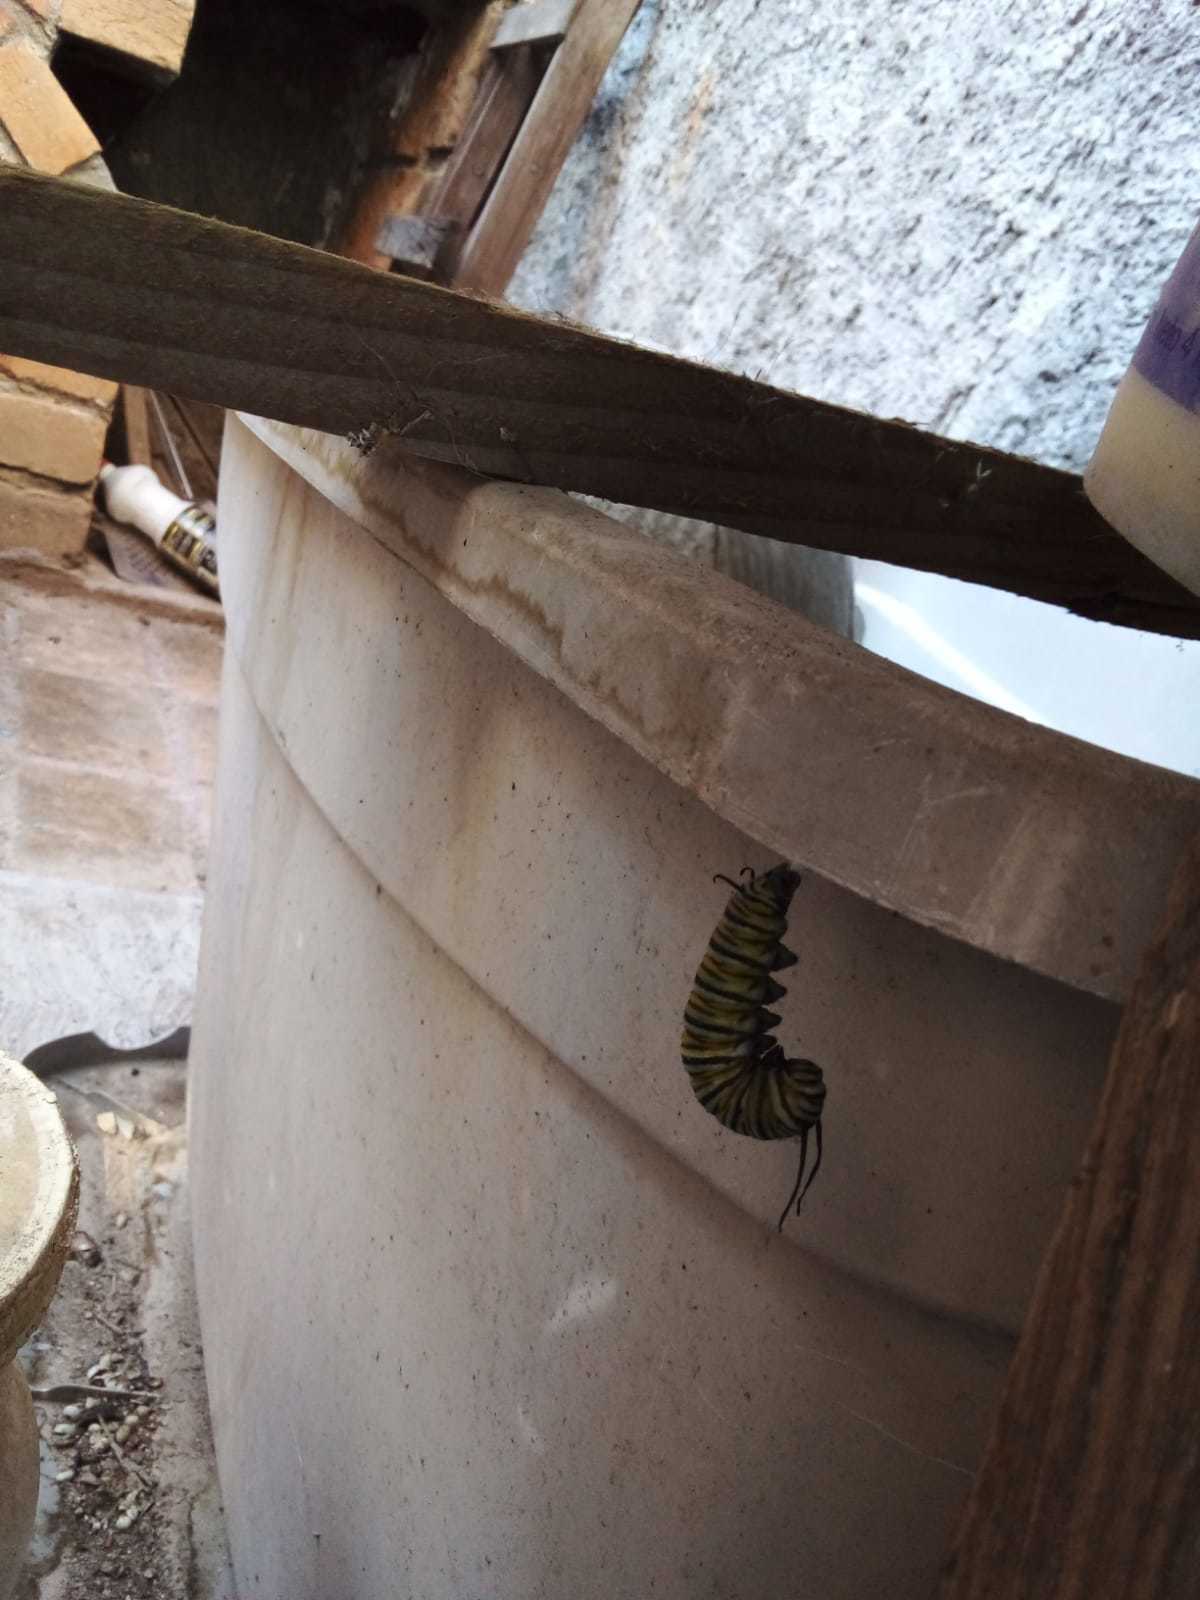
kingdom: Animalia
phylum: Arthropoda
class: Insecta
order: Lepidoptera
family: Nymphalidae
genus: Danaus
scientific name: Danaus plexippus
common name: Monarch
